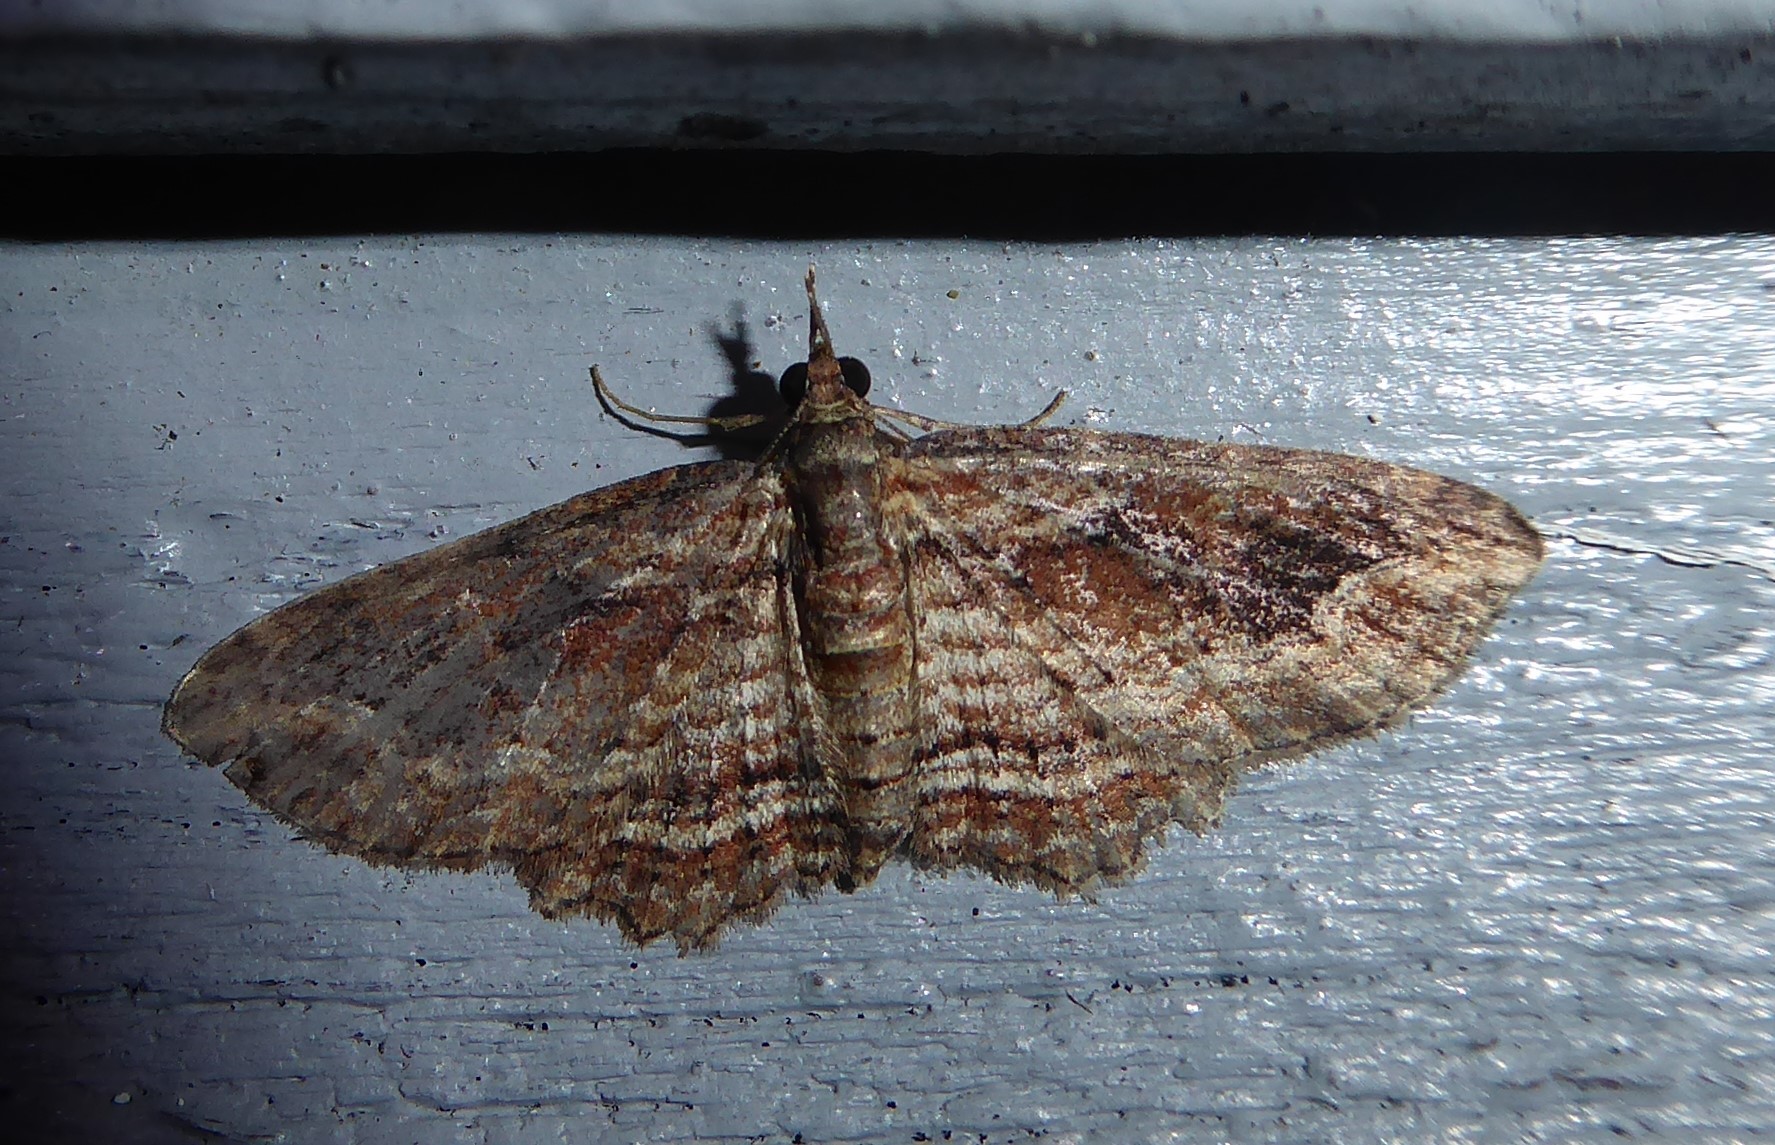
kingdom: Animalia
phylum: Arthropoda
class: Insecta
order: Lepidoptera
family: Geometridae
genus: Chloroclystis
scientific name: Chloroclystis filata
